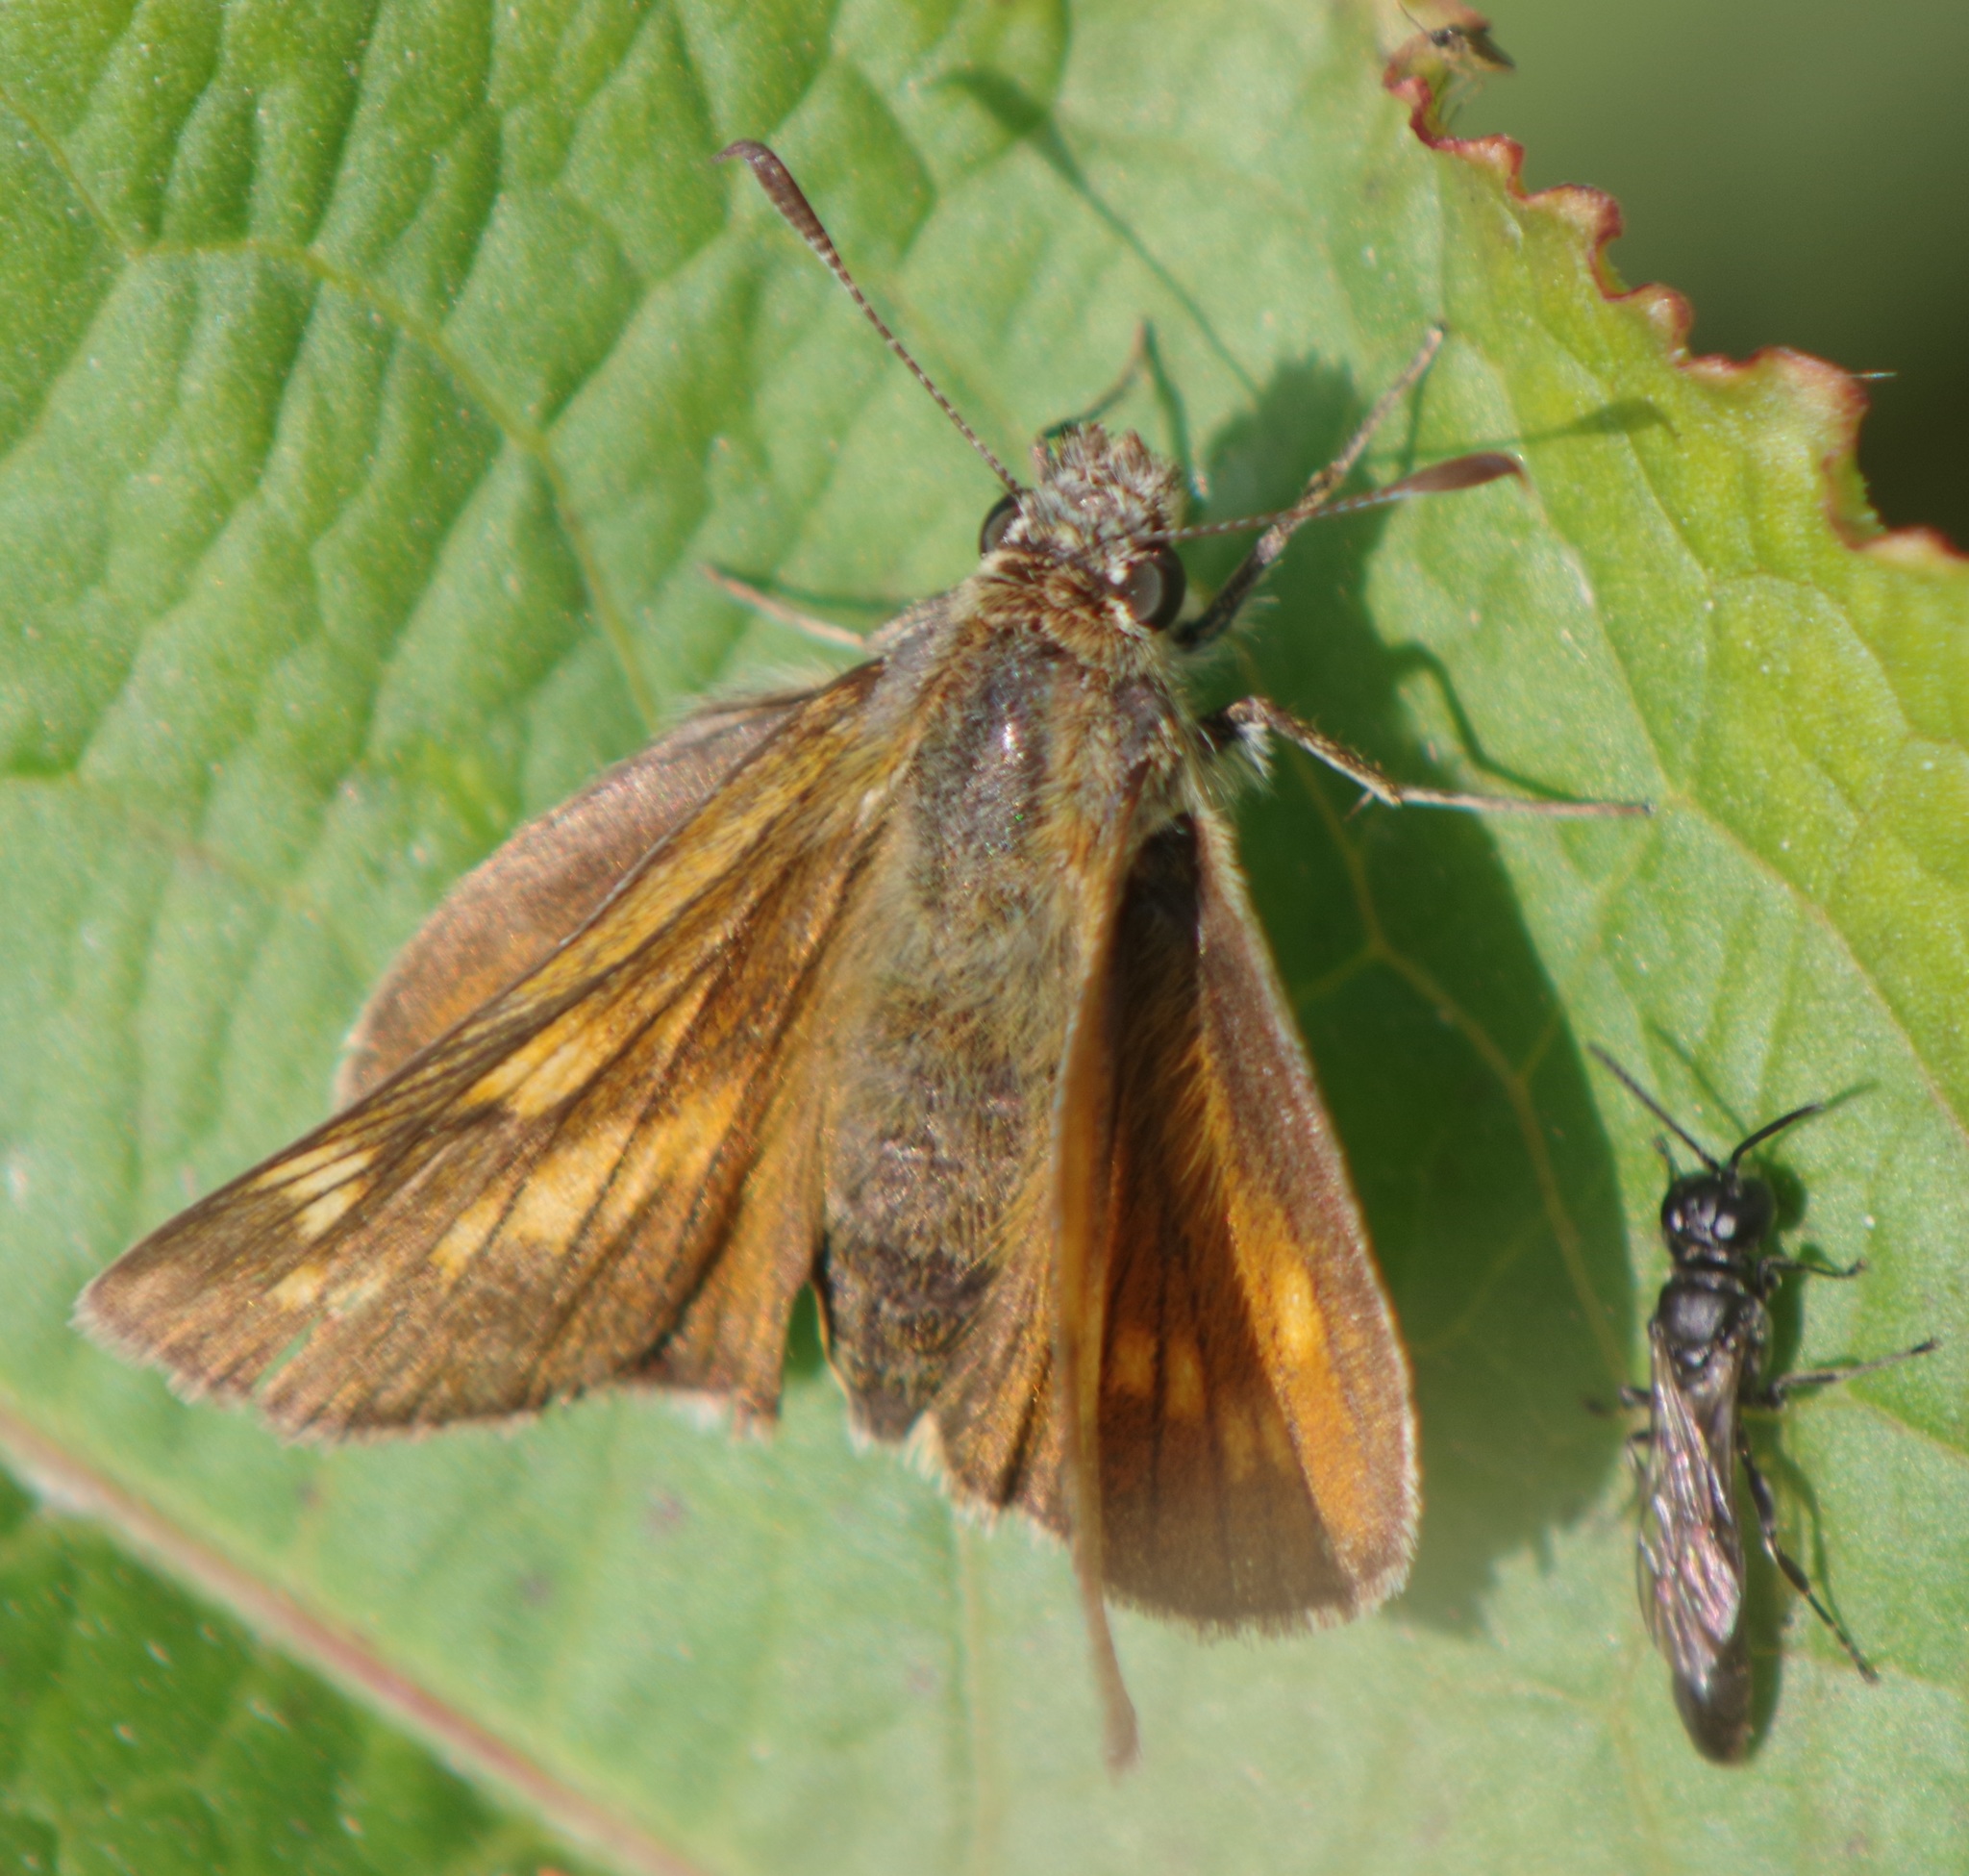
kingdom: Animalia
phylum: Arthropoda
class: Insecta
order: Lepidoptera
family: Hesperiidae
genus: Ochlodes
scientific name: Ochlodes venata
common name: Large skipper
